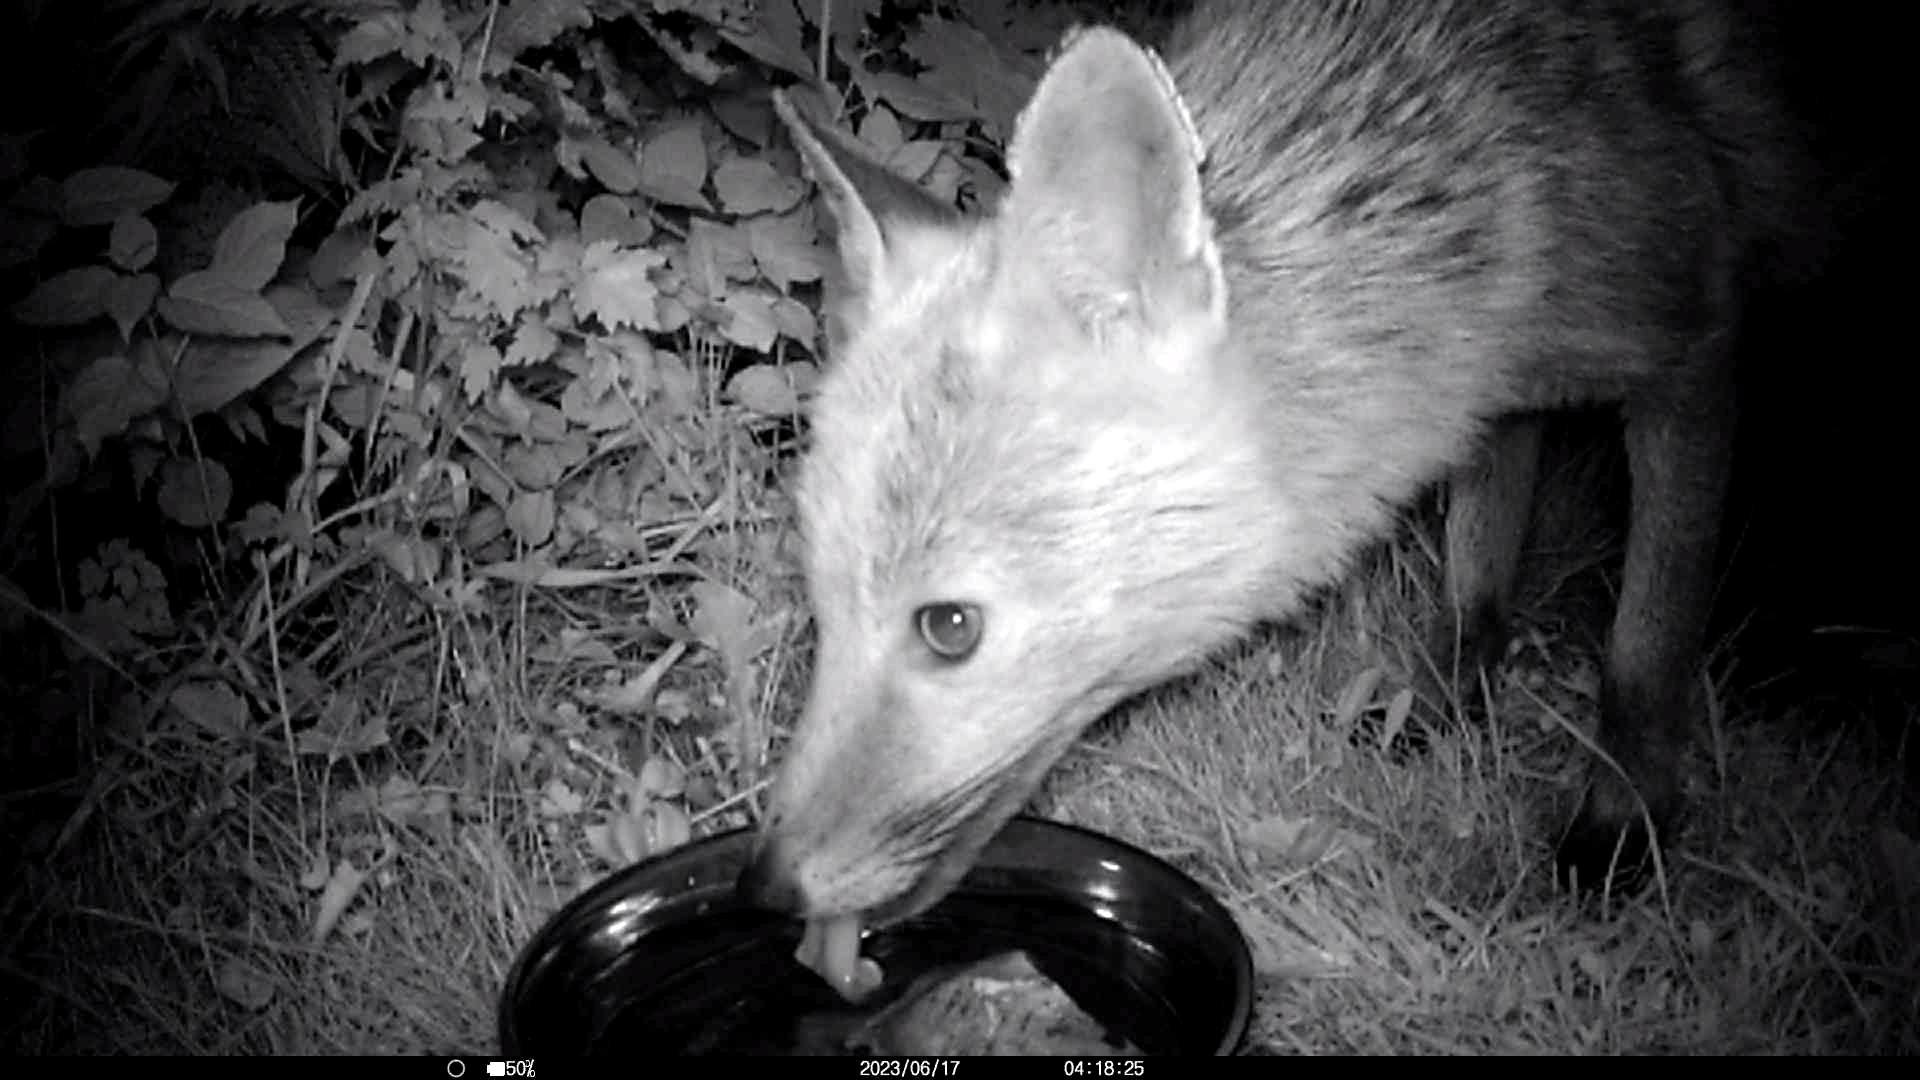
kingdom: Animalia
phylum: Chordata
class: Mammalia
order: Carnivora
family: Canidae
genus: Vulpes
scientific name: Vulpes vulpes
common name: Red fox
